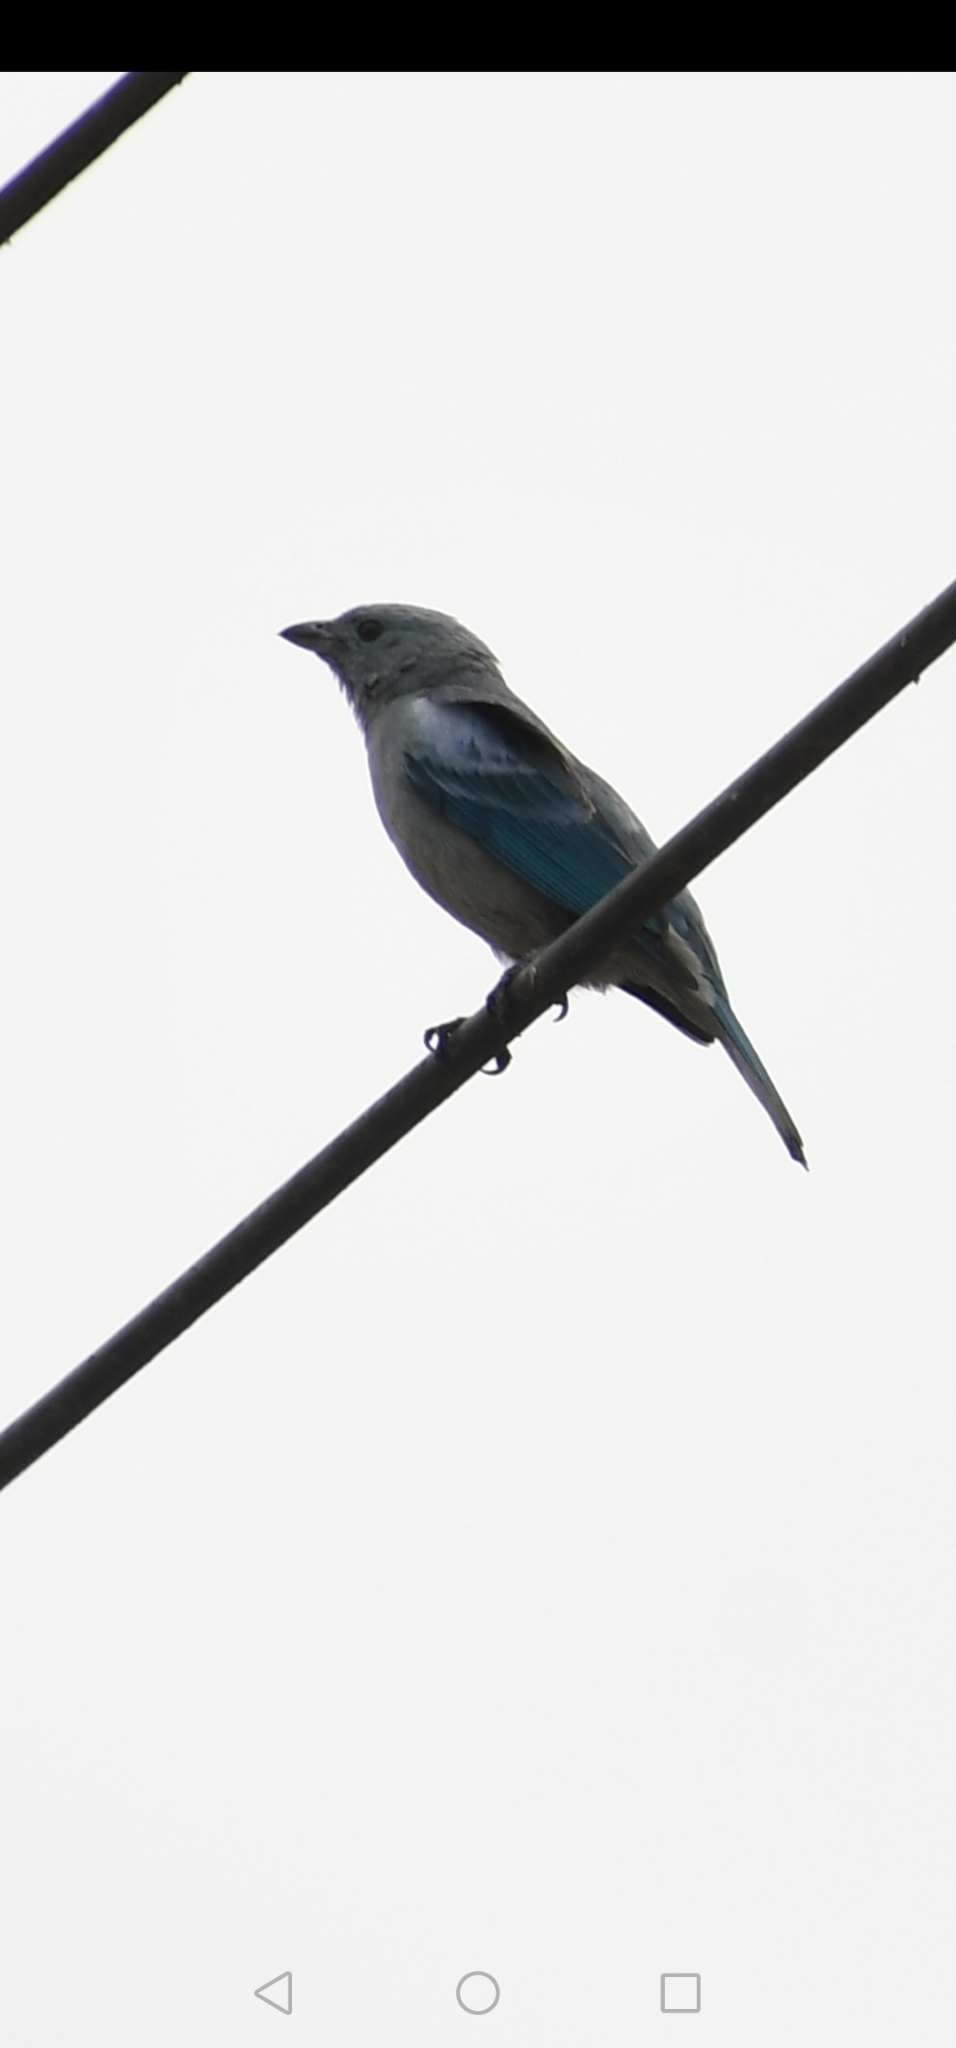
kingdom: Animalia
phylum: Chordata
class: Aves
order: Passeriformes
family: Thraupidae
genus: Thraupis
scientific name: Thraupis episcopus
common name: Blue-grey tanager
